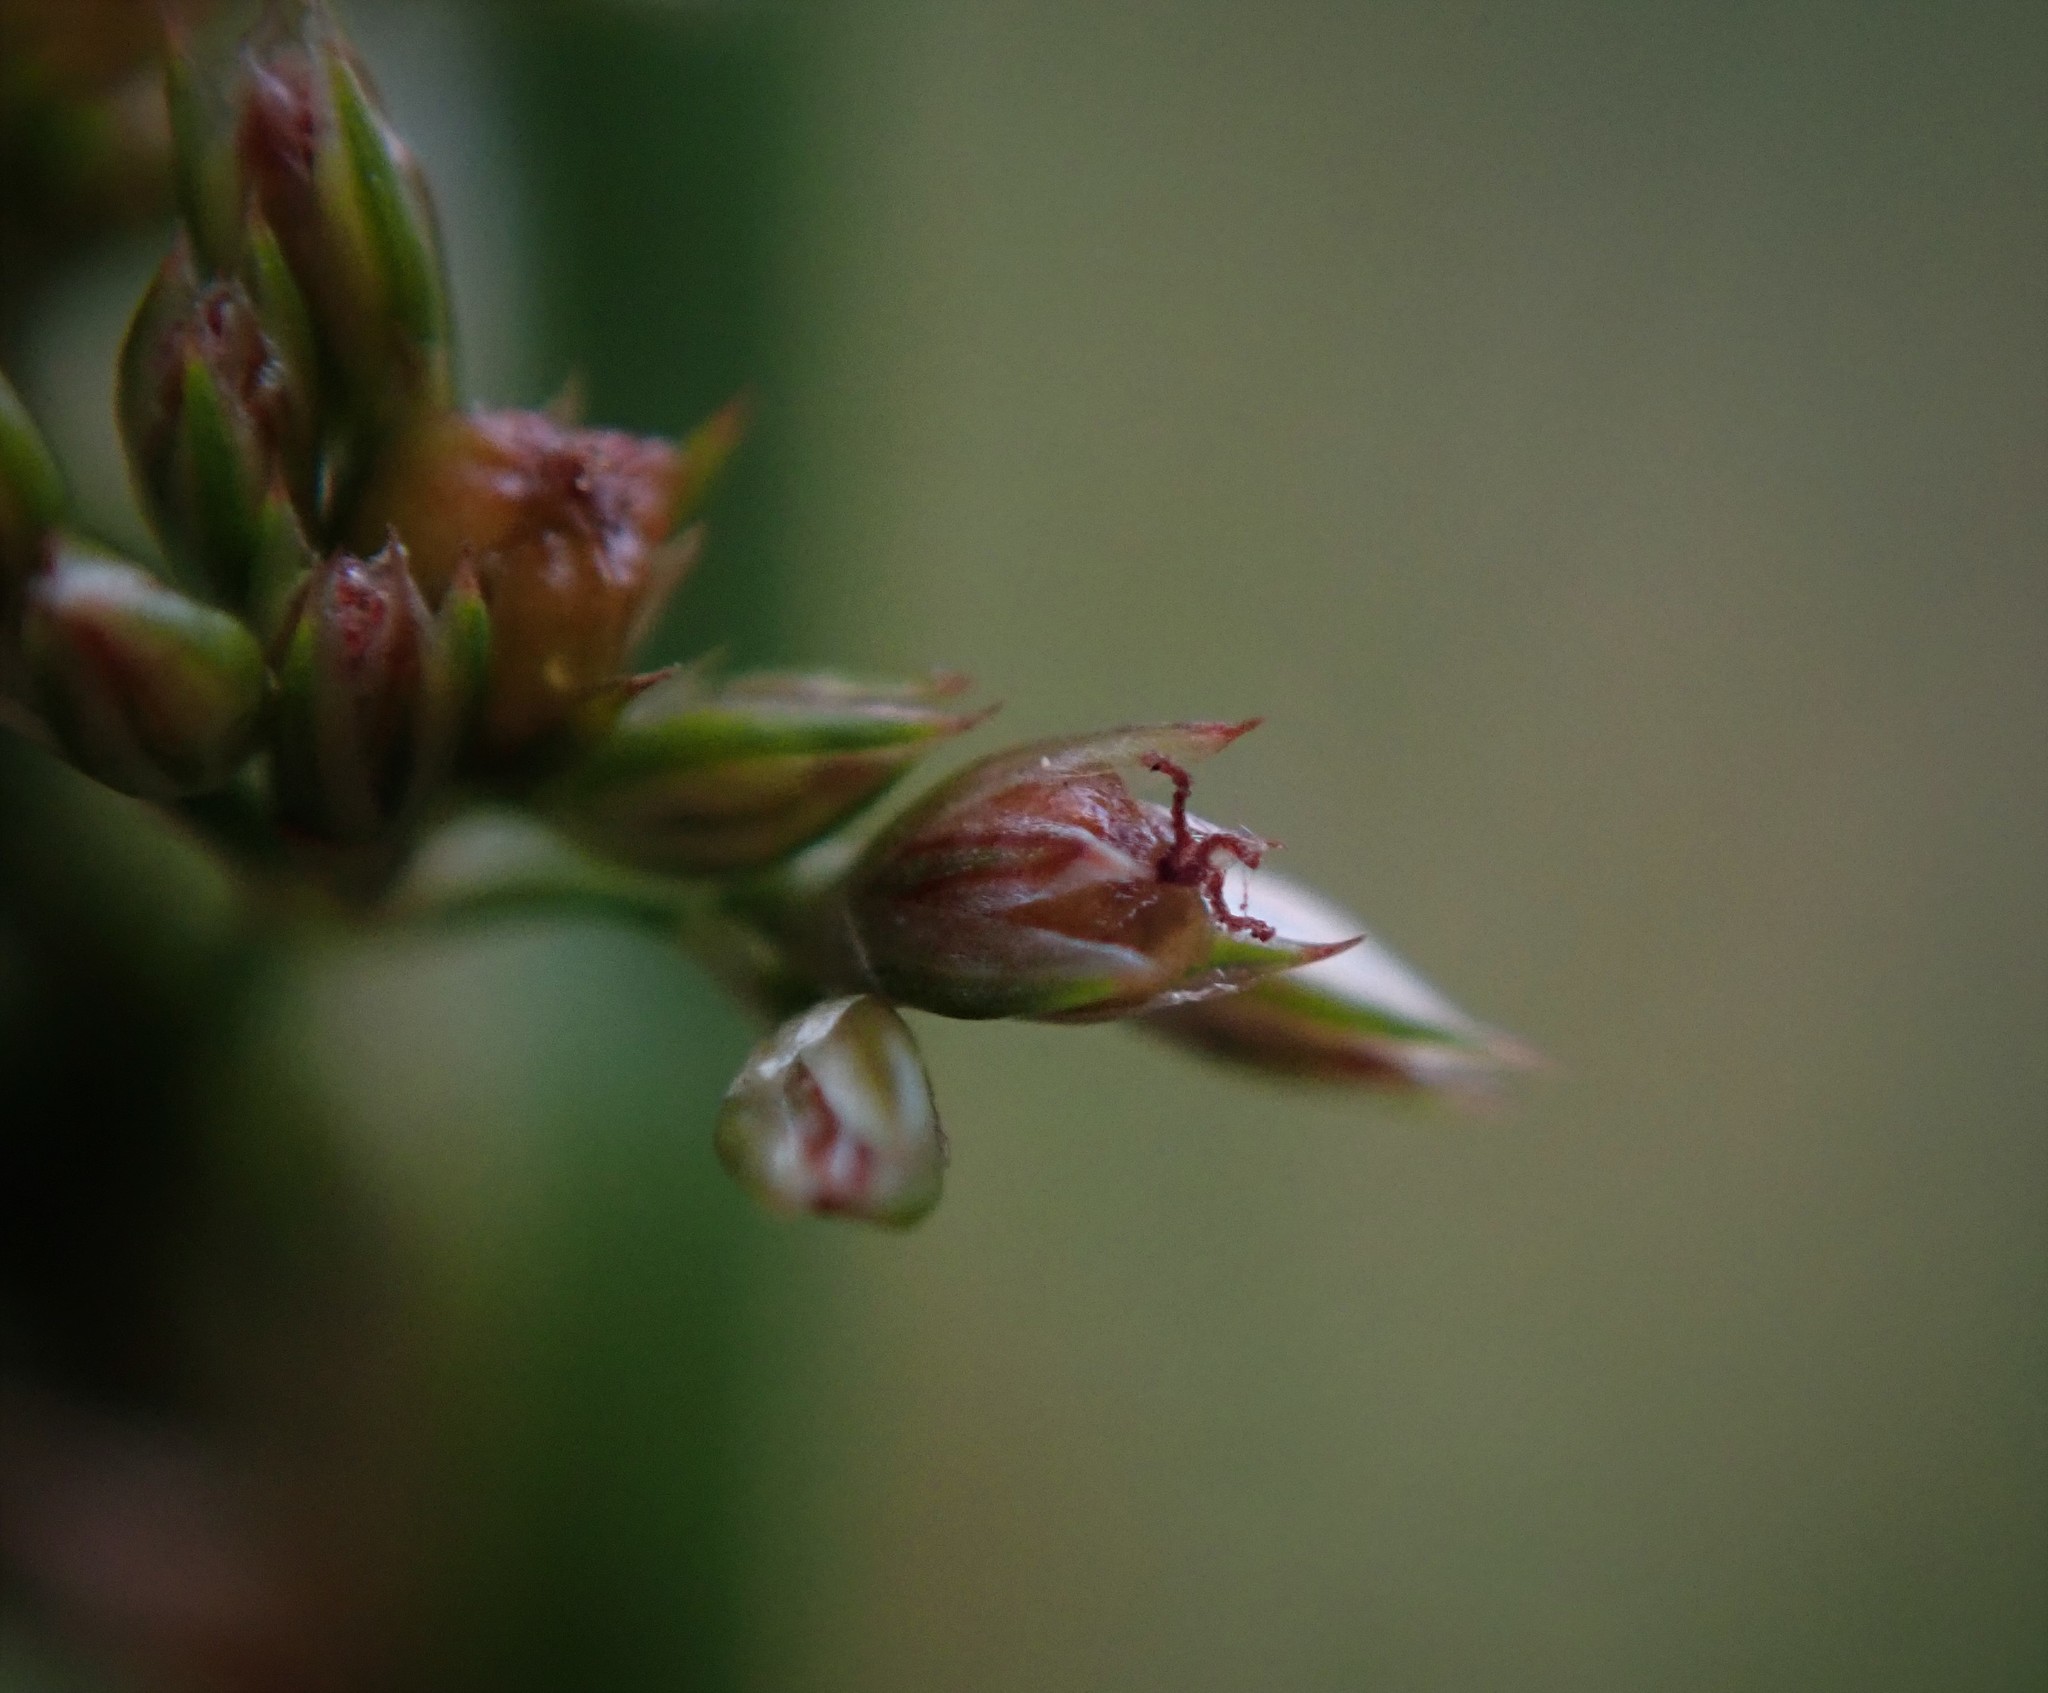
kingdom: Plantae
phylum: Tracheophyta
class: Liliopsida
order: Poales
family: Juncaceae
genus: Juncus
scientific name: Juncus effusus
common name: Soft rush
